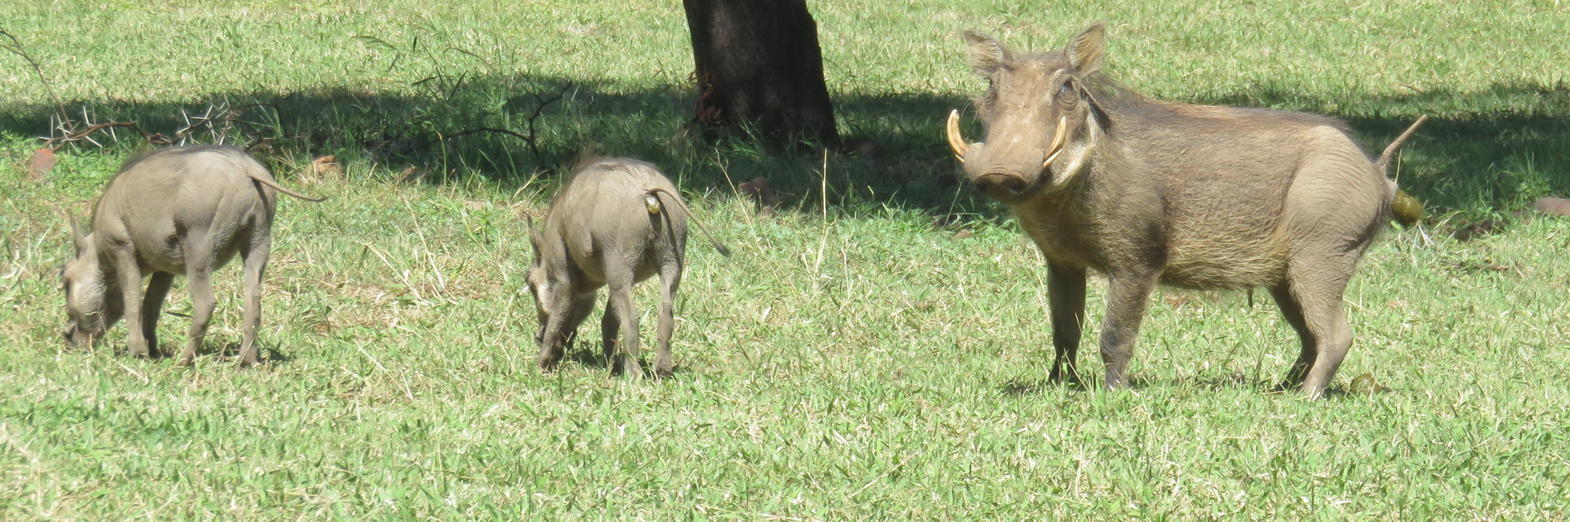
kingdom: Animalia
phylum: Chordata
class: Mammalia
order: Artiodactyla
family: Suidae
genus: Phacochoerus
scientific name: Phacochoerus africanus
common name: Common warthog
